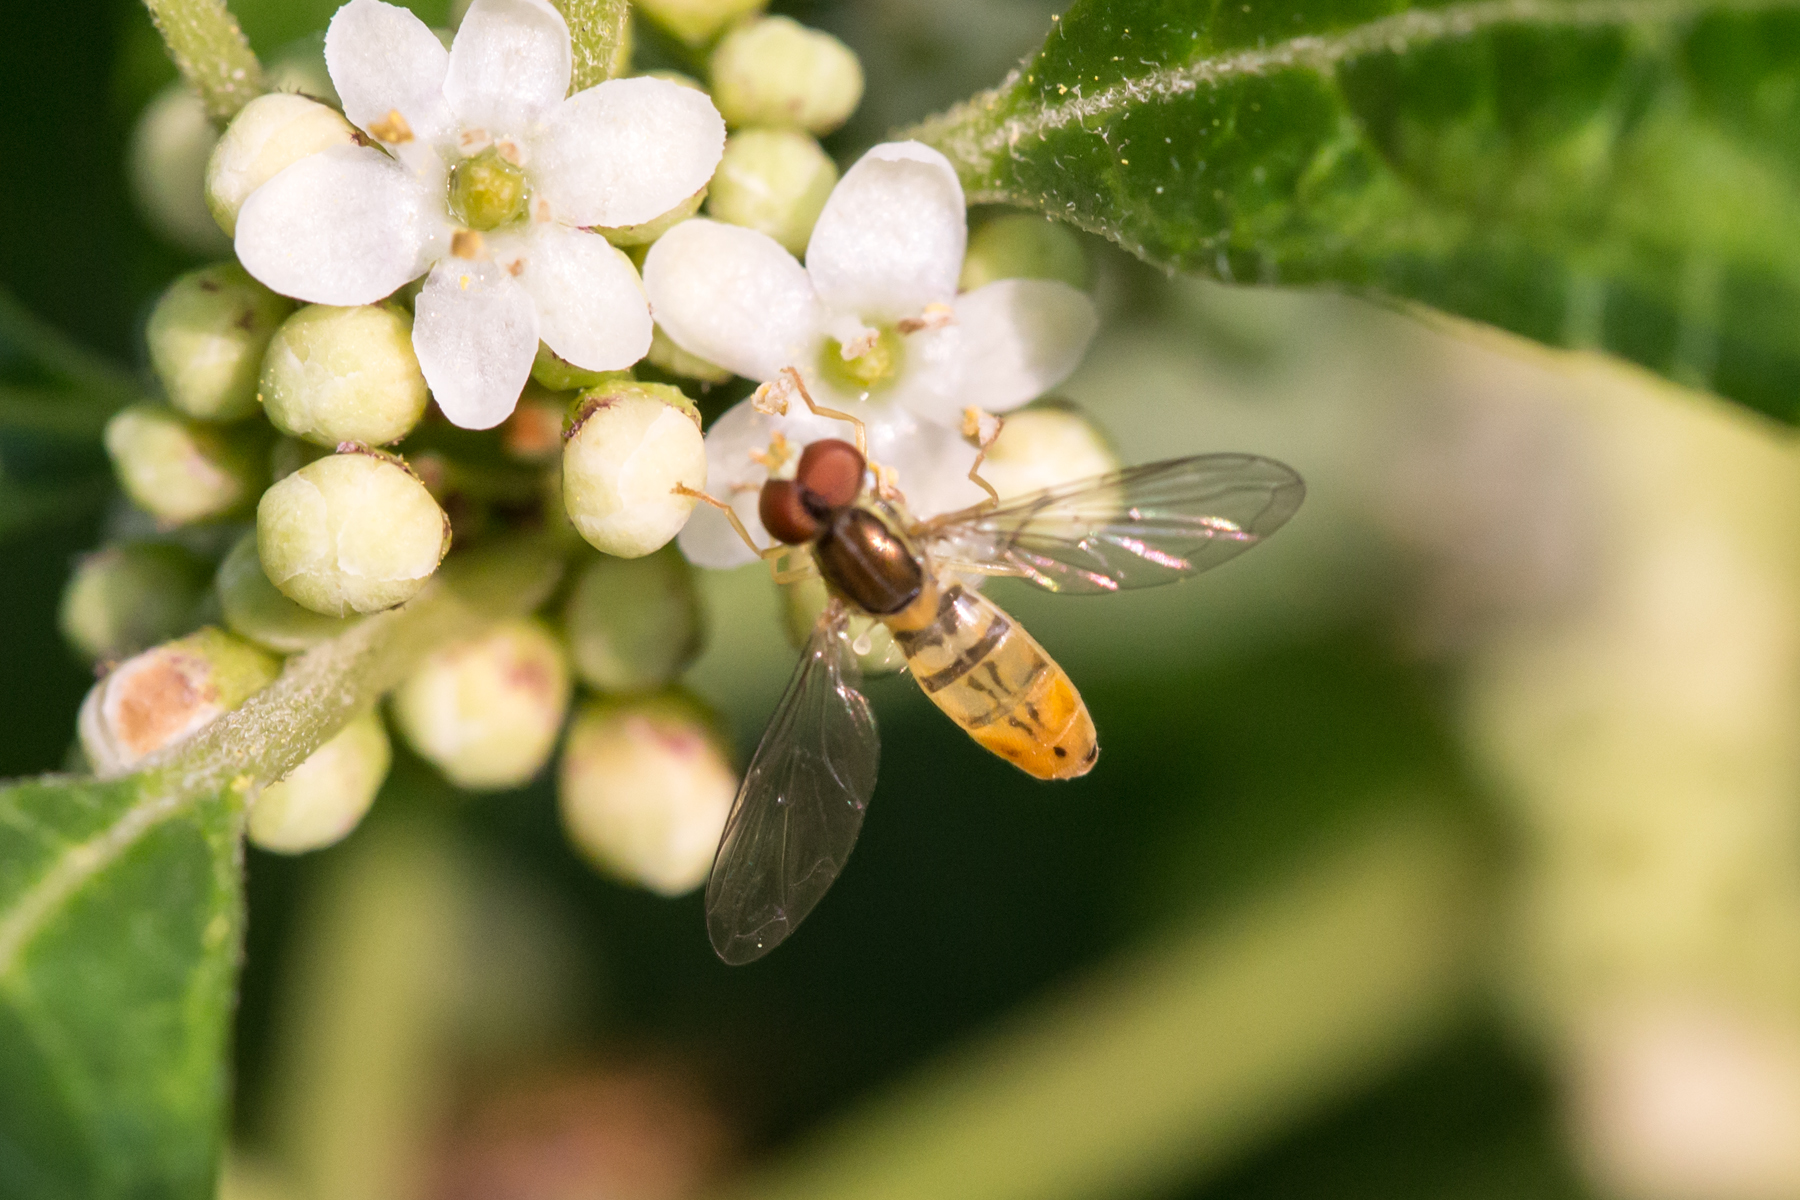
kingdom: Animalia
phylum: Arthropoda
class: Insecta
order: Diptera
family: Syrphidae
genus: Toxomerus
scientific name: Toxomerus marginatus
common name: Syrphid fly
